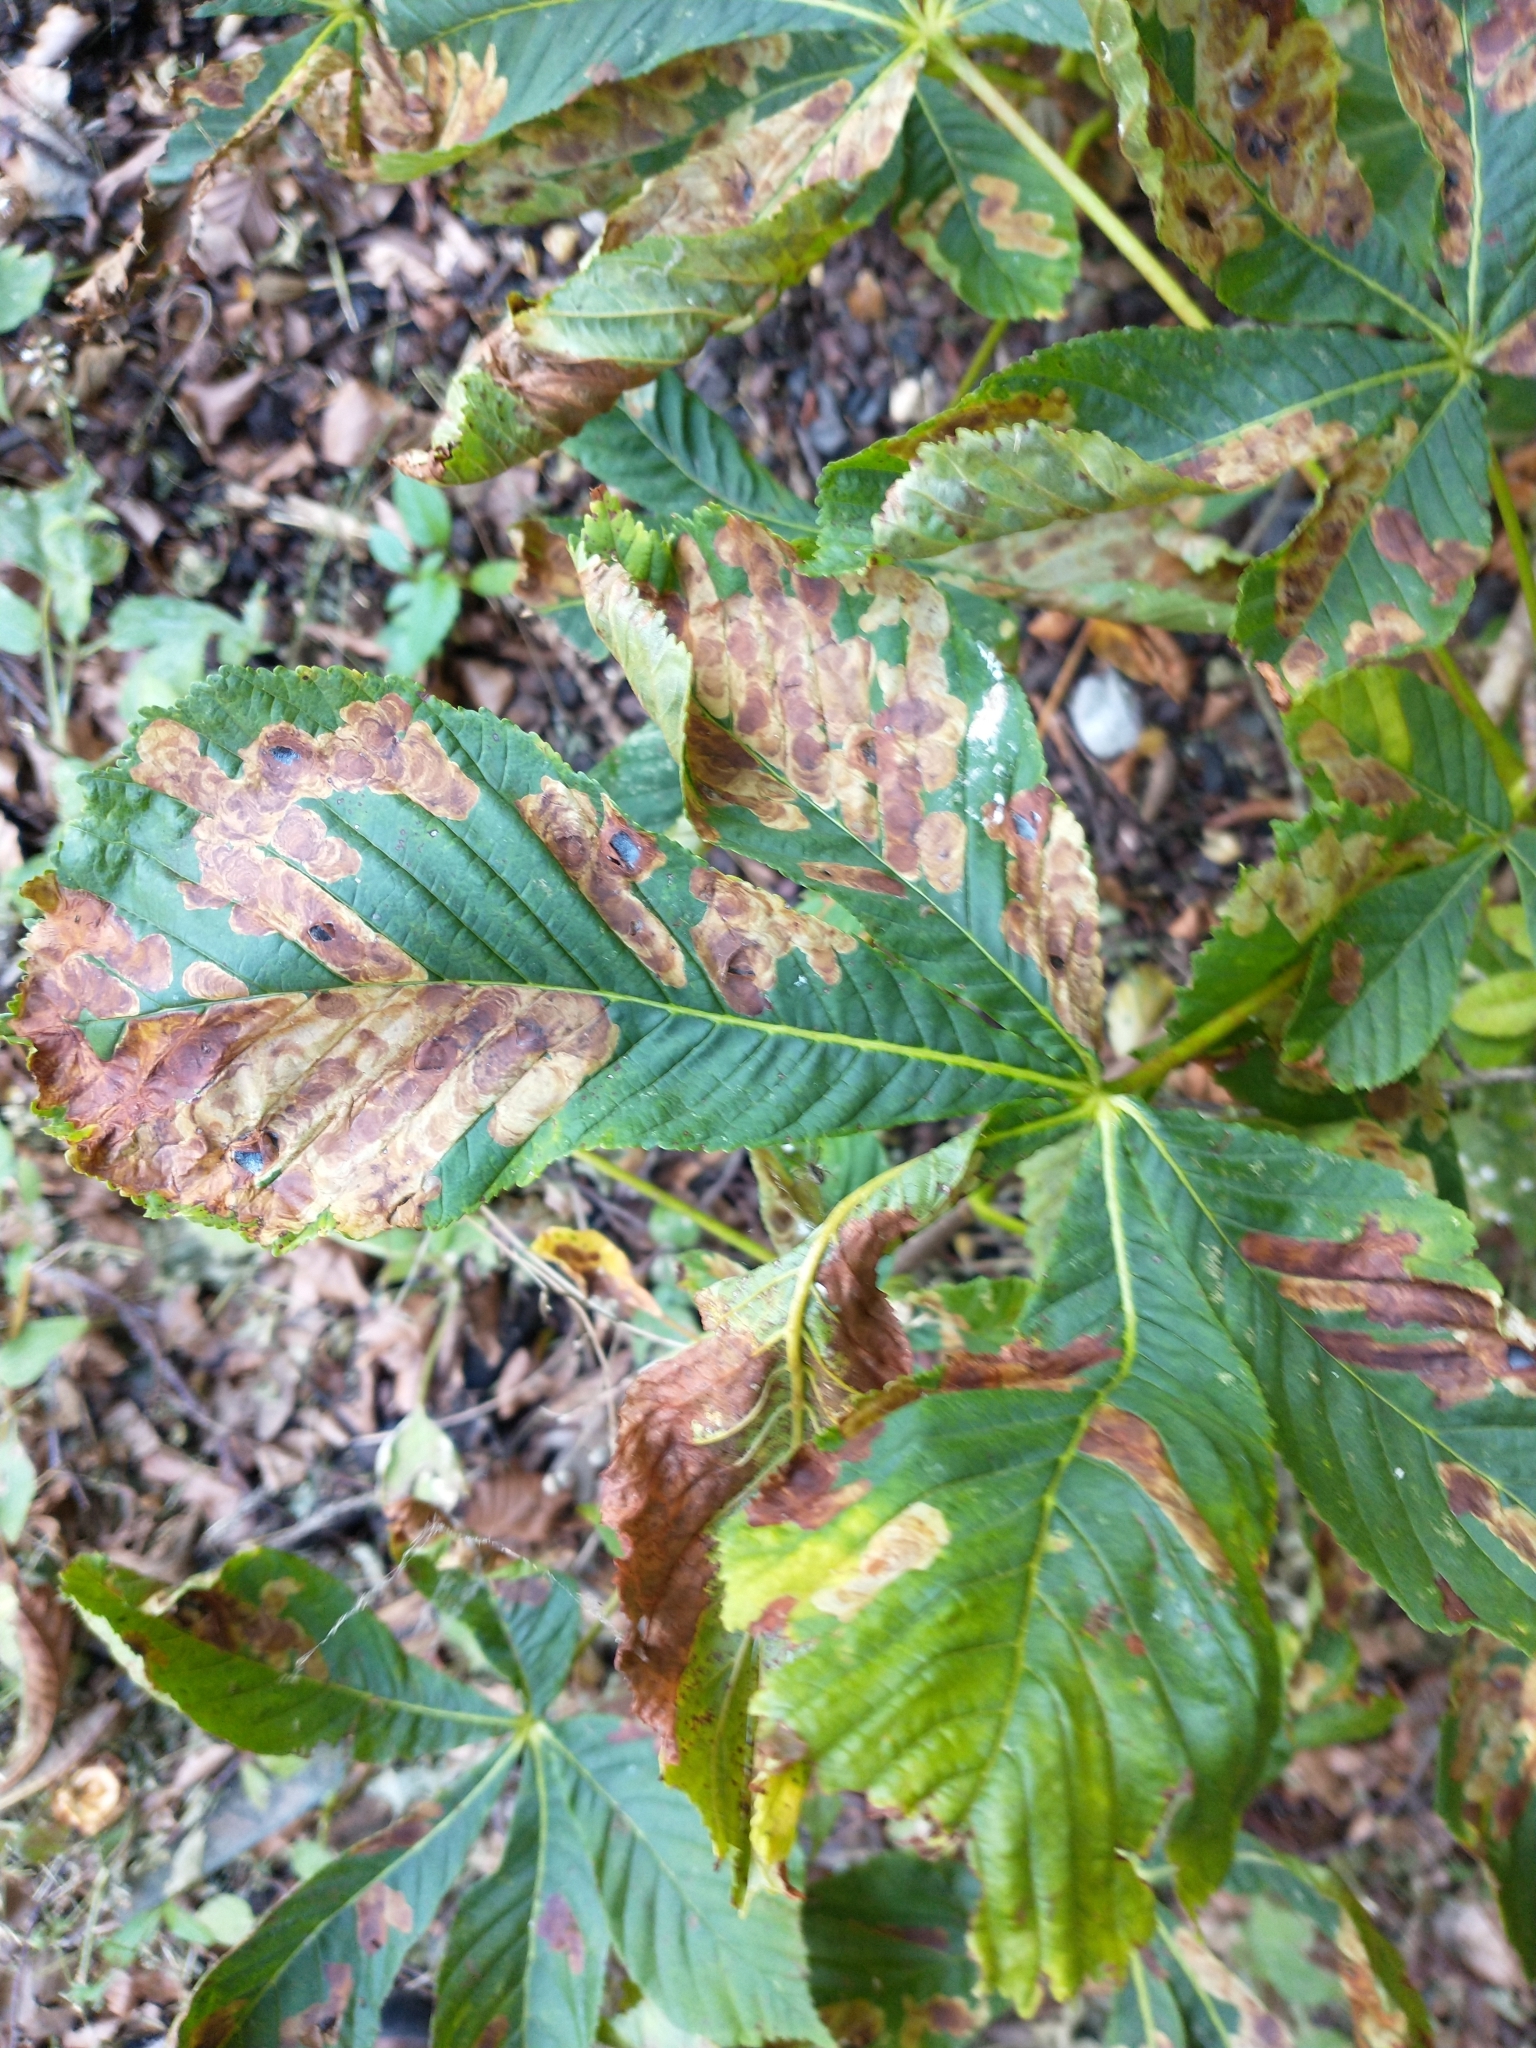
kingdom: Animalia
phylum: Arthropoda
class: Insecta
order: Lepidoptera
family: Gracillariidae
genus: Cameraria
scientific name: Cameraria ohridella
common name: Horse-chestnut leaf-miner
